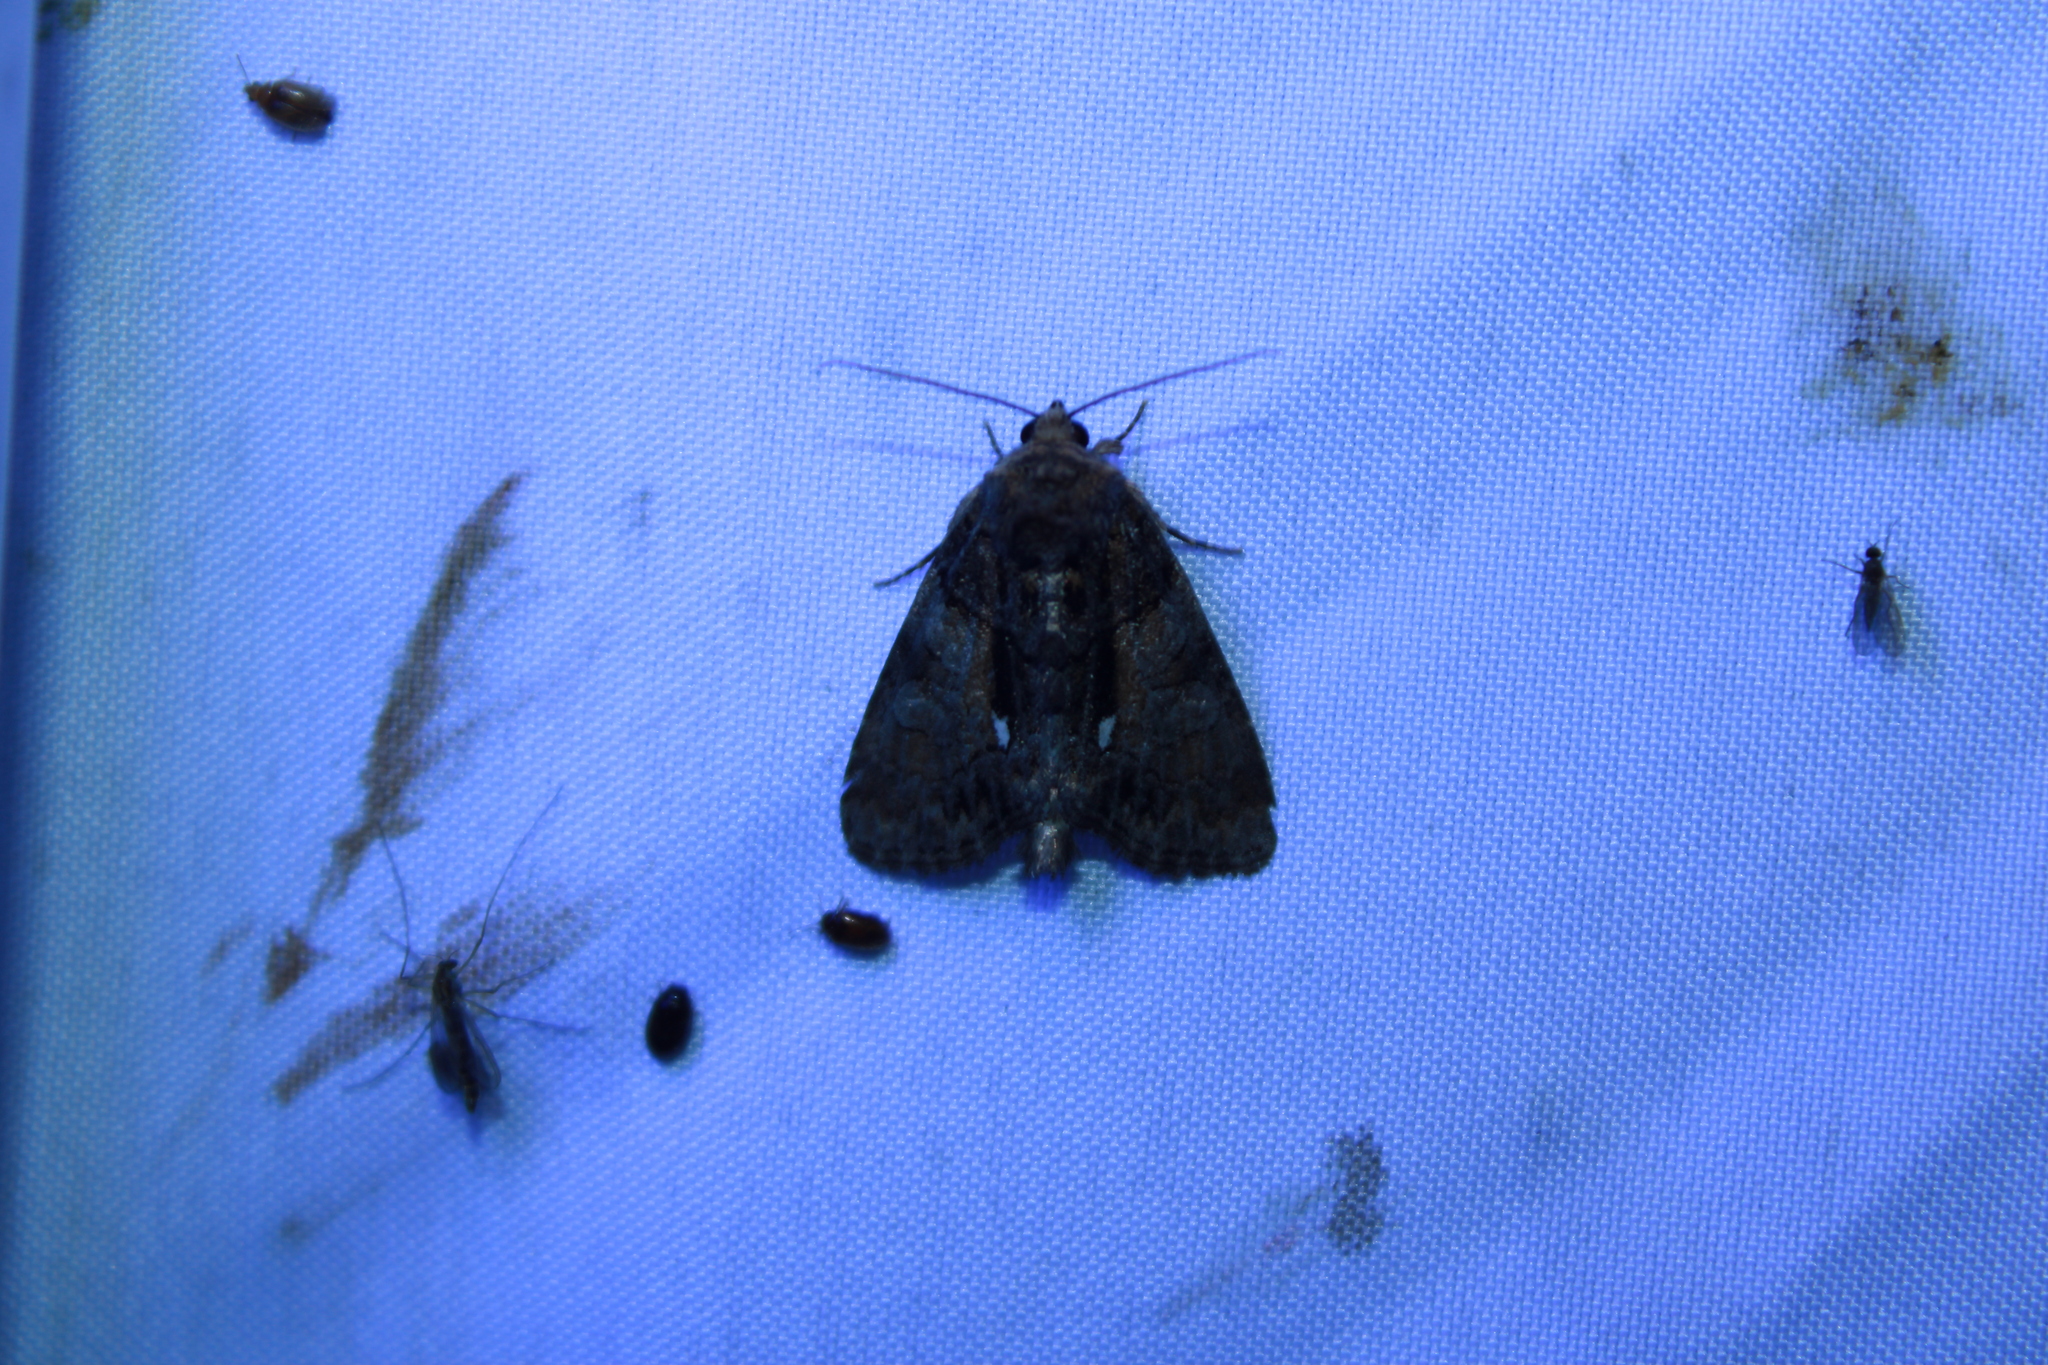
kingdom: Animalia
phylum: Arthropoda
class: Insecta
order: Lepidoptera
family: Noctuidae
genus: Chytonix
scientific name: Chytonix palliatricula
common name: Cloaked marvel
